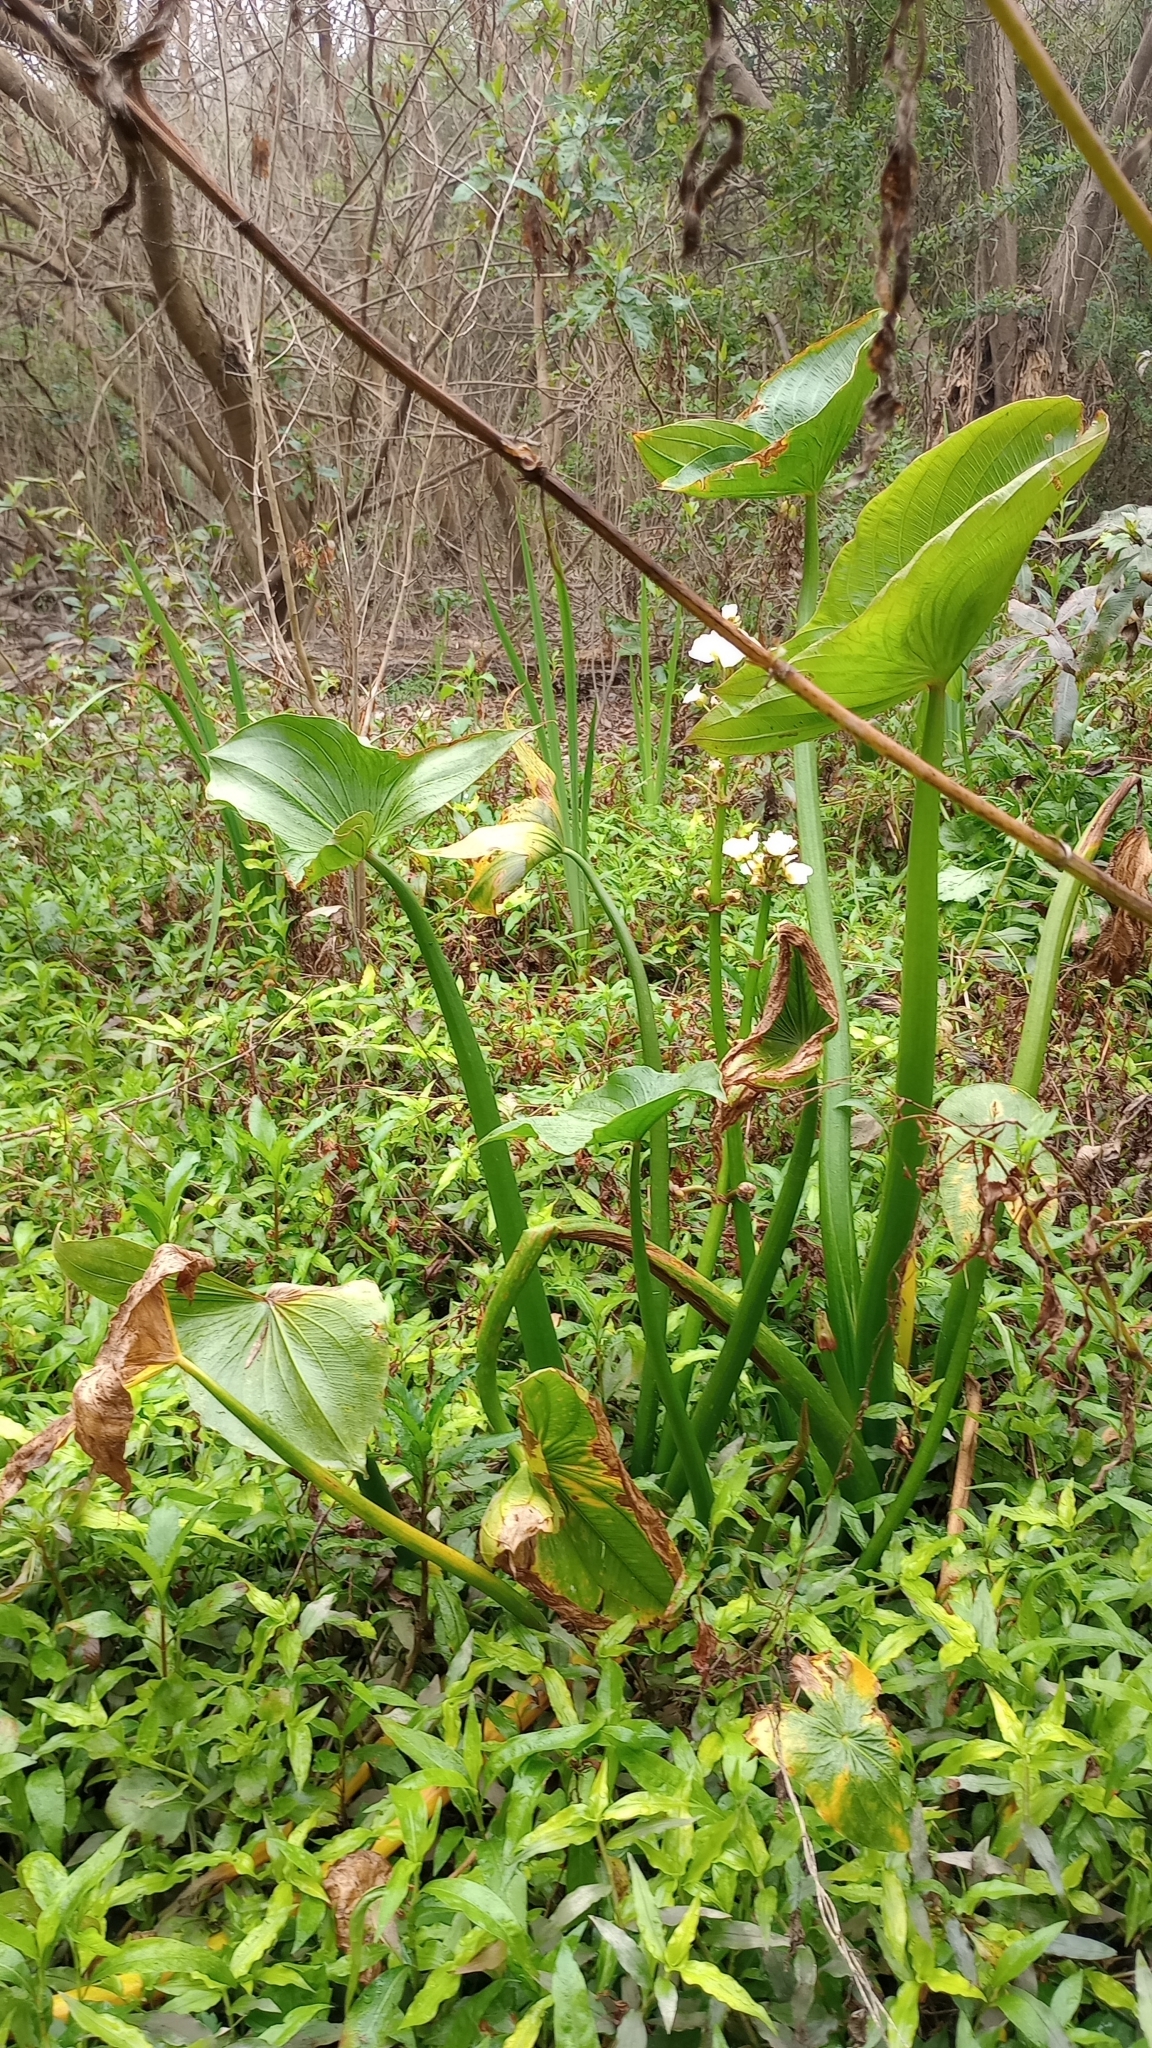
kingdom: Plantae
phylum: Tracheophyta
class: Liliopsida
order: Alismatales
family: Alismataceae
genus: Sagittaria
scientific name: Sagittaria montevidensis
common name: Giant arrowhead
